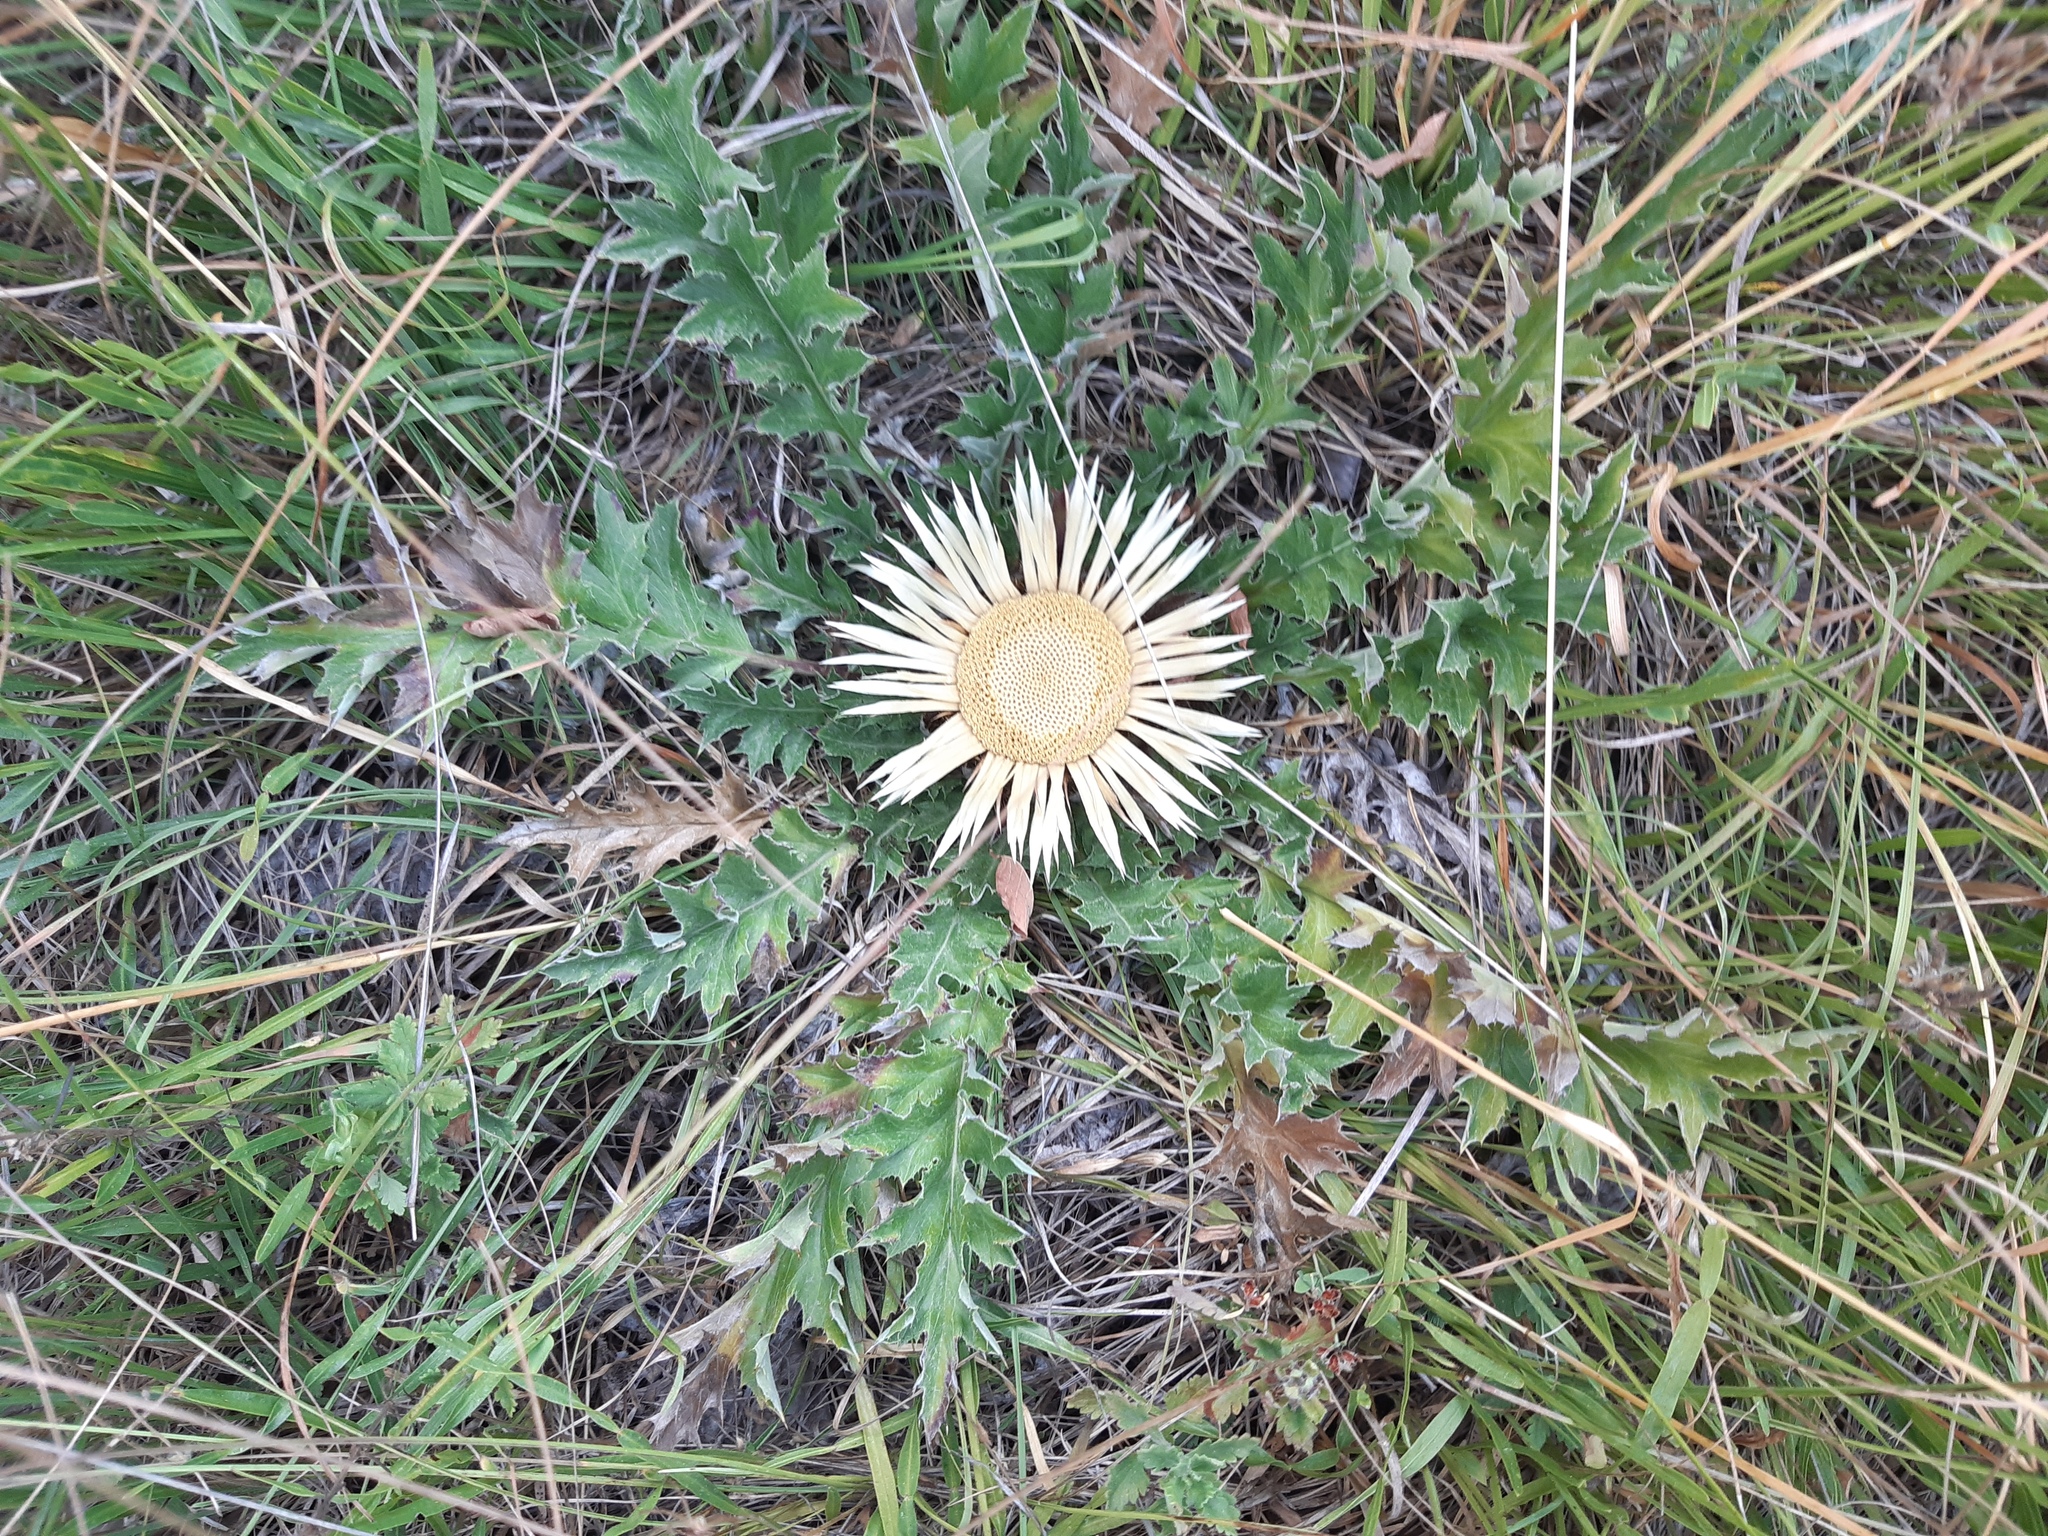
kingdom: Plantae
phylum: Tracheophyta
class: Magnoliopsida
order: Asterales
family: Asteraceae
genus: Carlina
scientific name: Carlina acanthifolia
